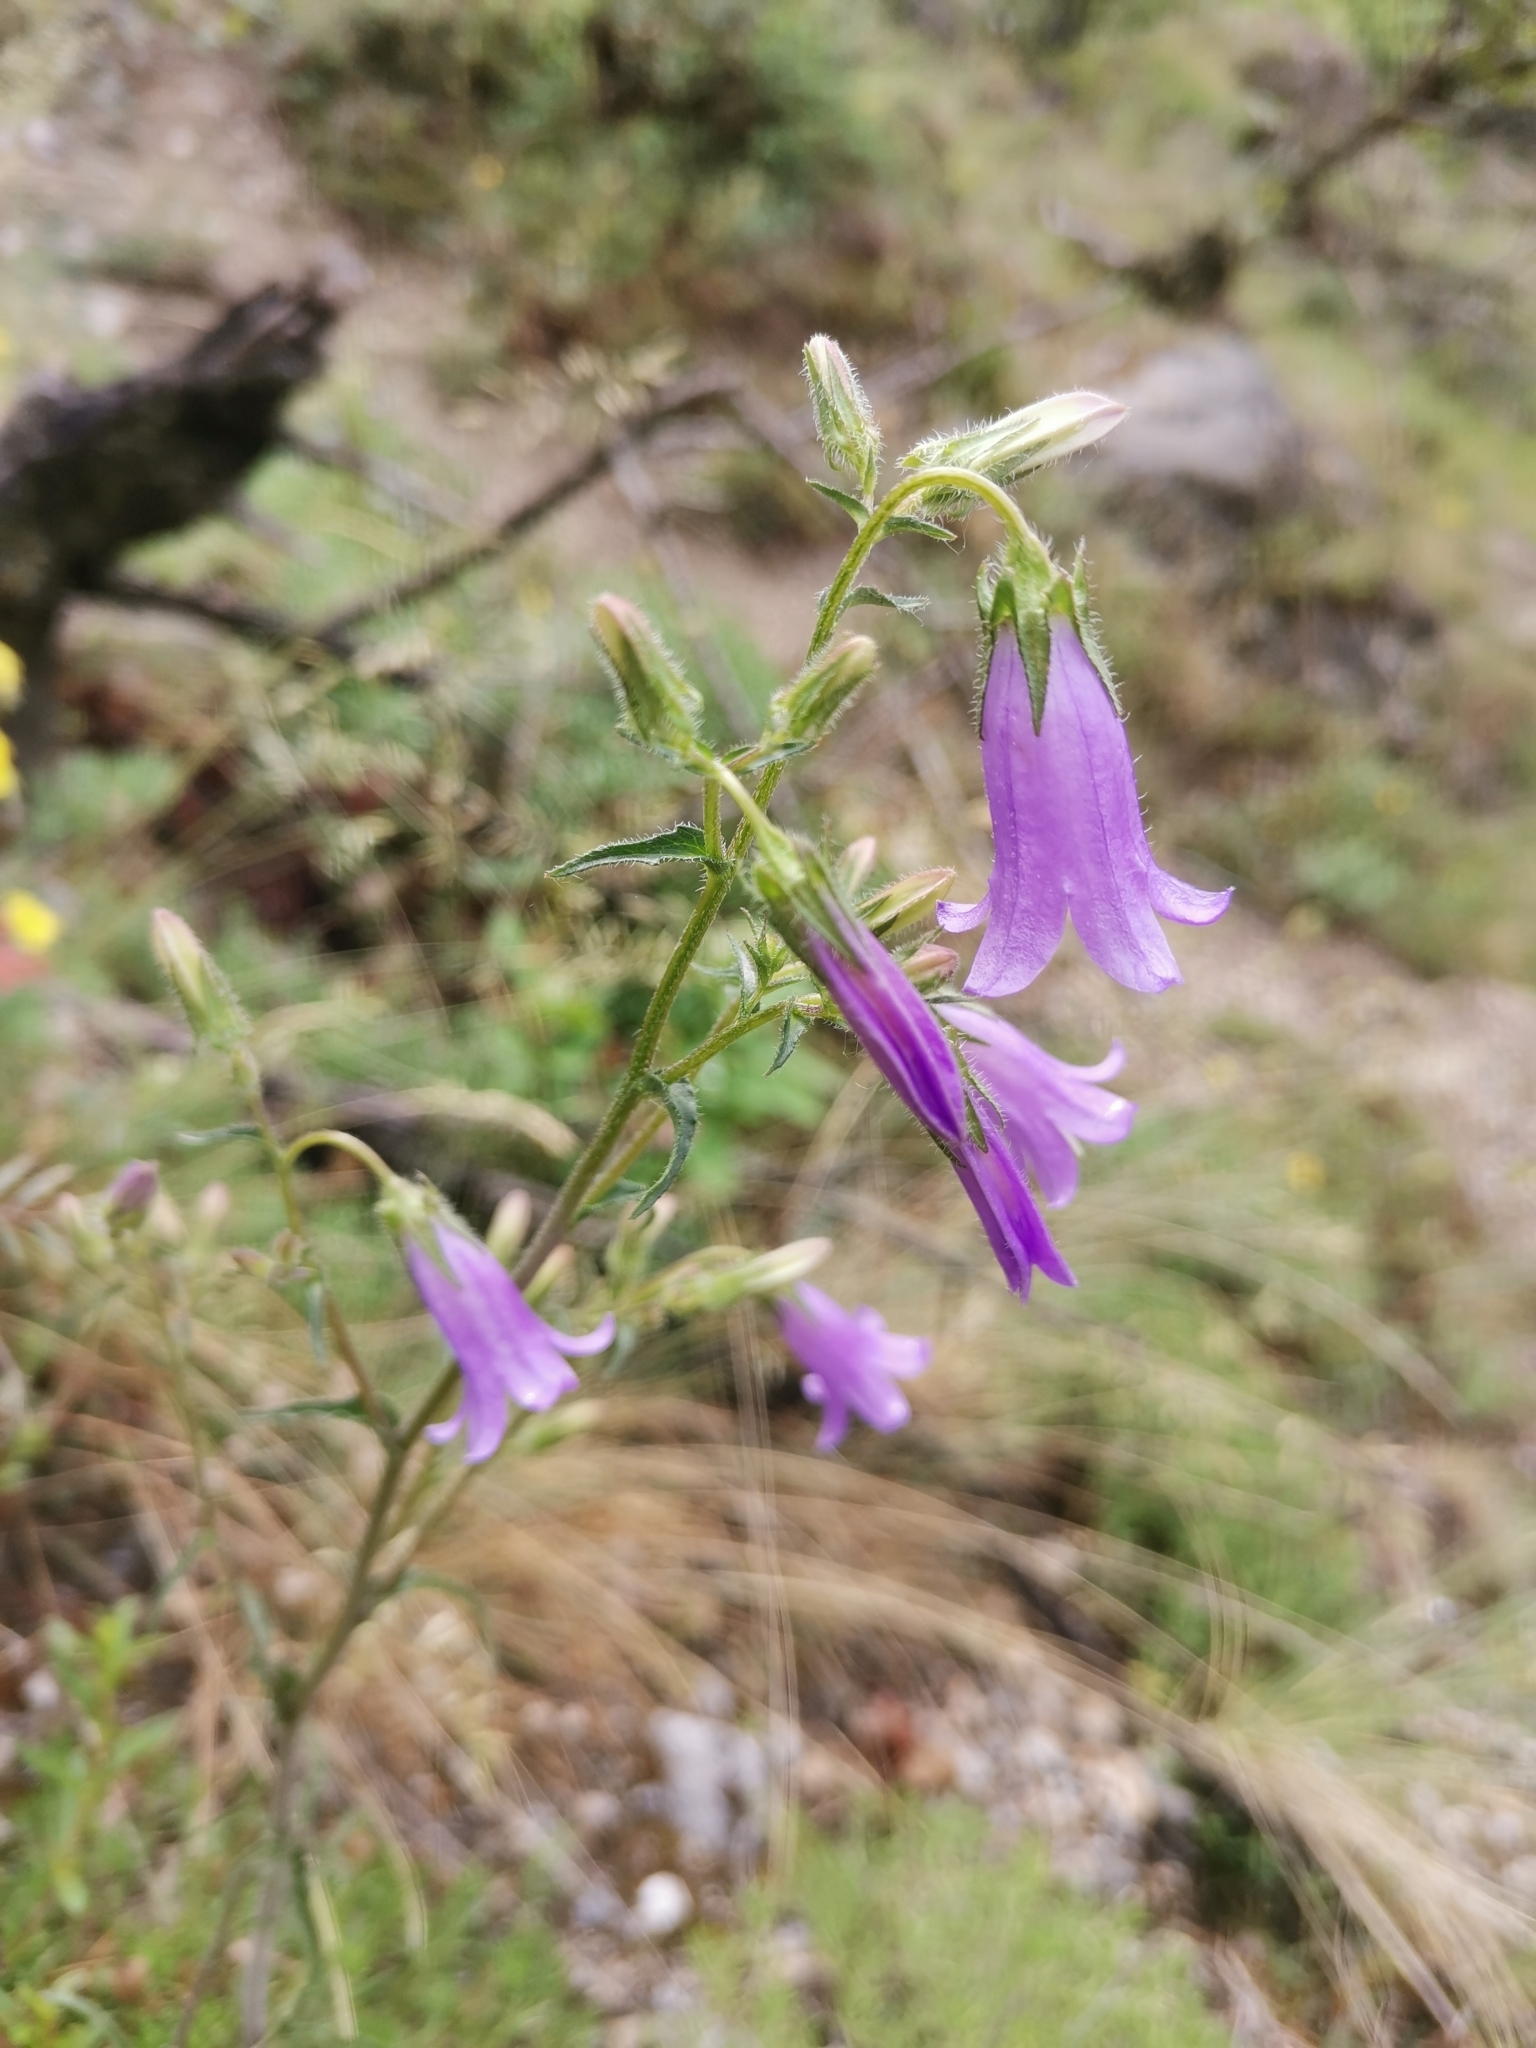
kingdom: Plantae
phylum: Tracheophyta
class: Magnoliopsida
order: Asterales
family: Campanulaceae
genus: Campanula
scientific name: Campanula sibirica
